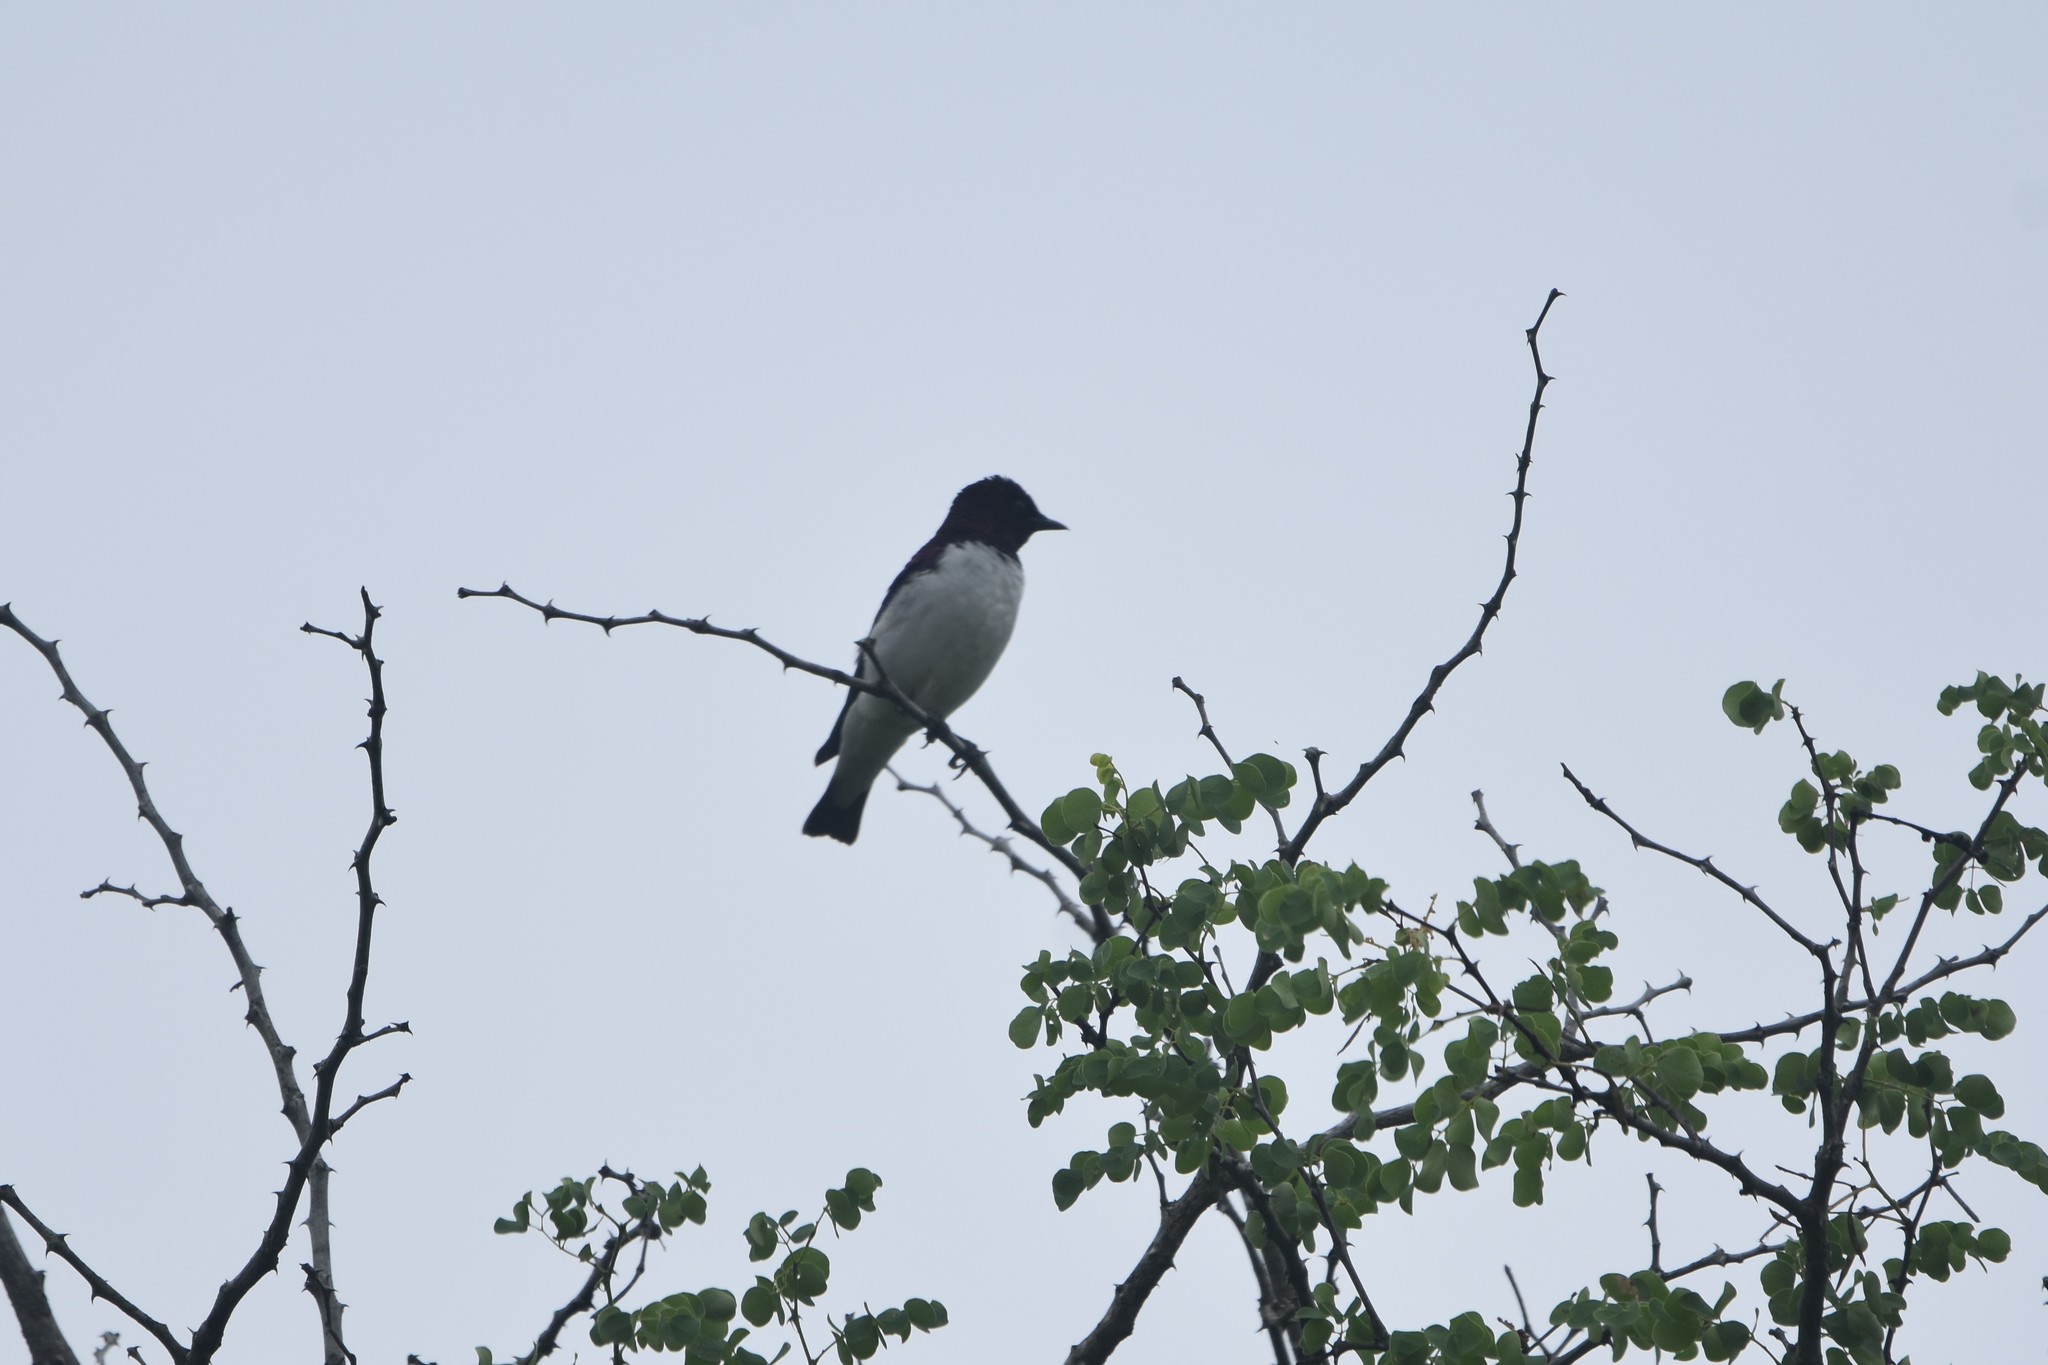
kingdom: Animalia
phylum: Chordata
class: Aves
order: Passeriformes
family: Sturnidae
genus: Cinnyricinclus
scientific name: Cinnyricinclus leucogaster
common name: Violet-backed starling
